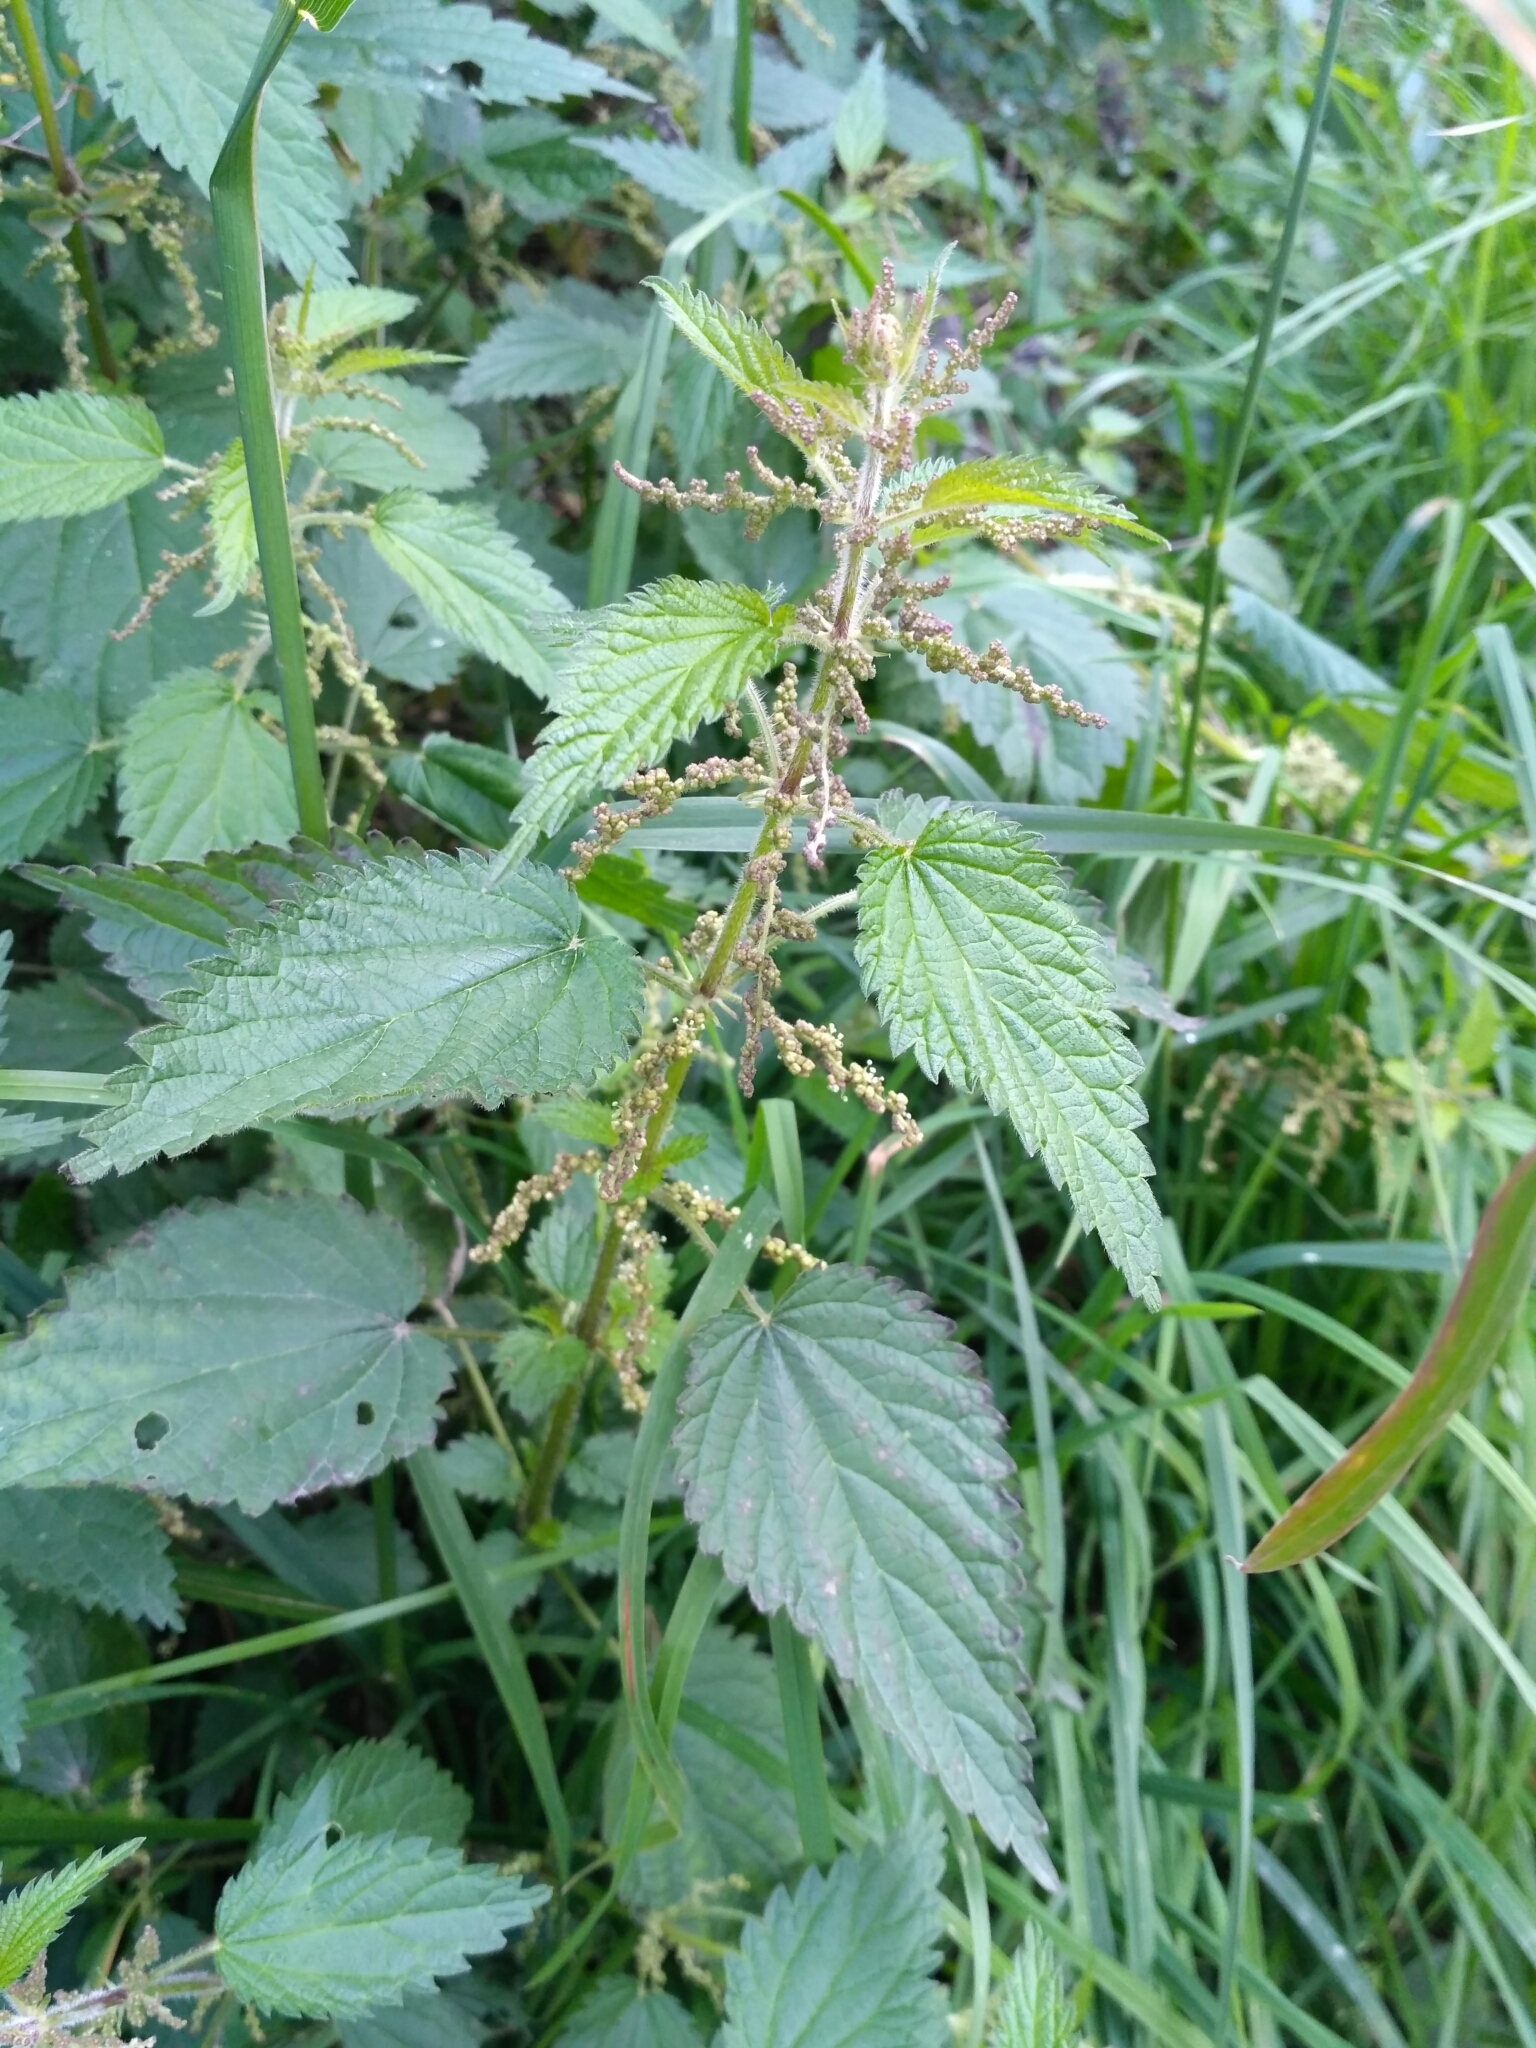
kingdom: Plantae
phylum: Tracheophyta
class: Magnoliopsida
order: Rosales
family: Urticaceae
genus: Urtica
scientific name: Urtica dioica
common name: Common nettle
